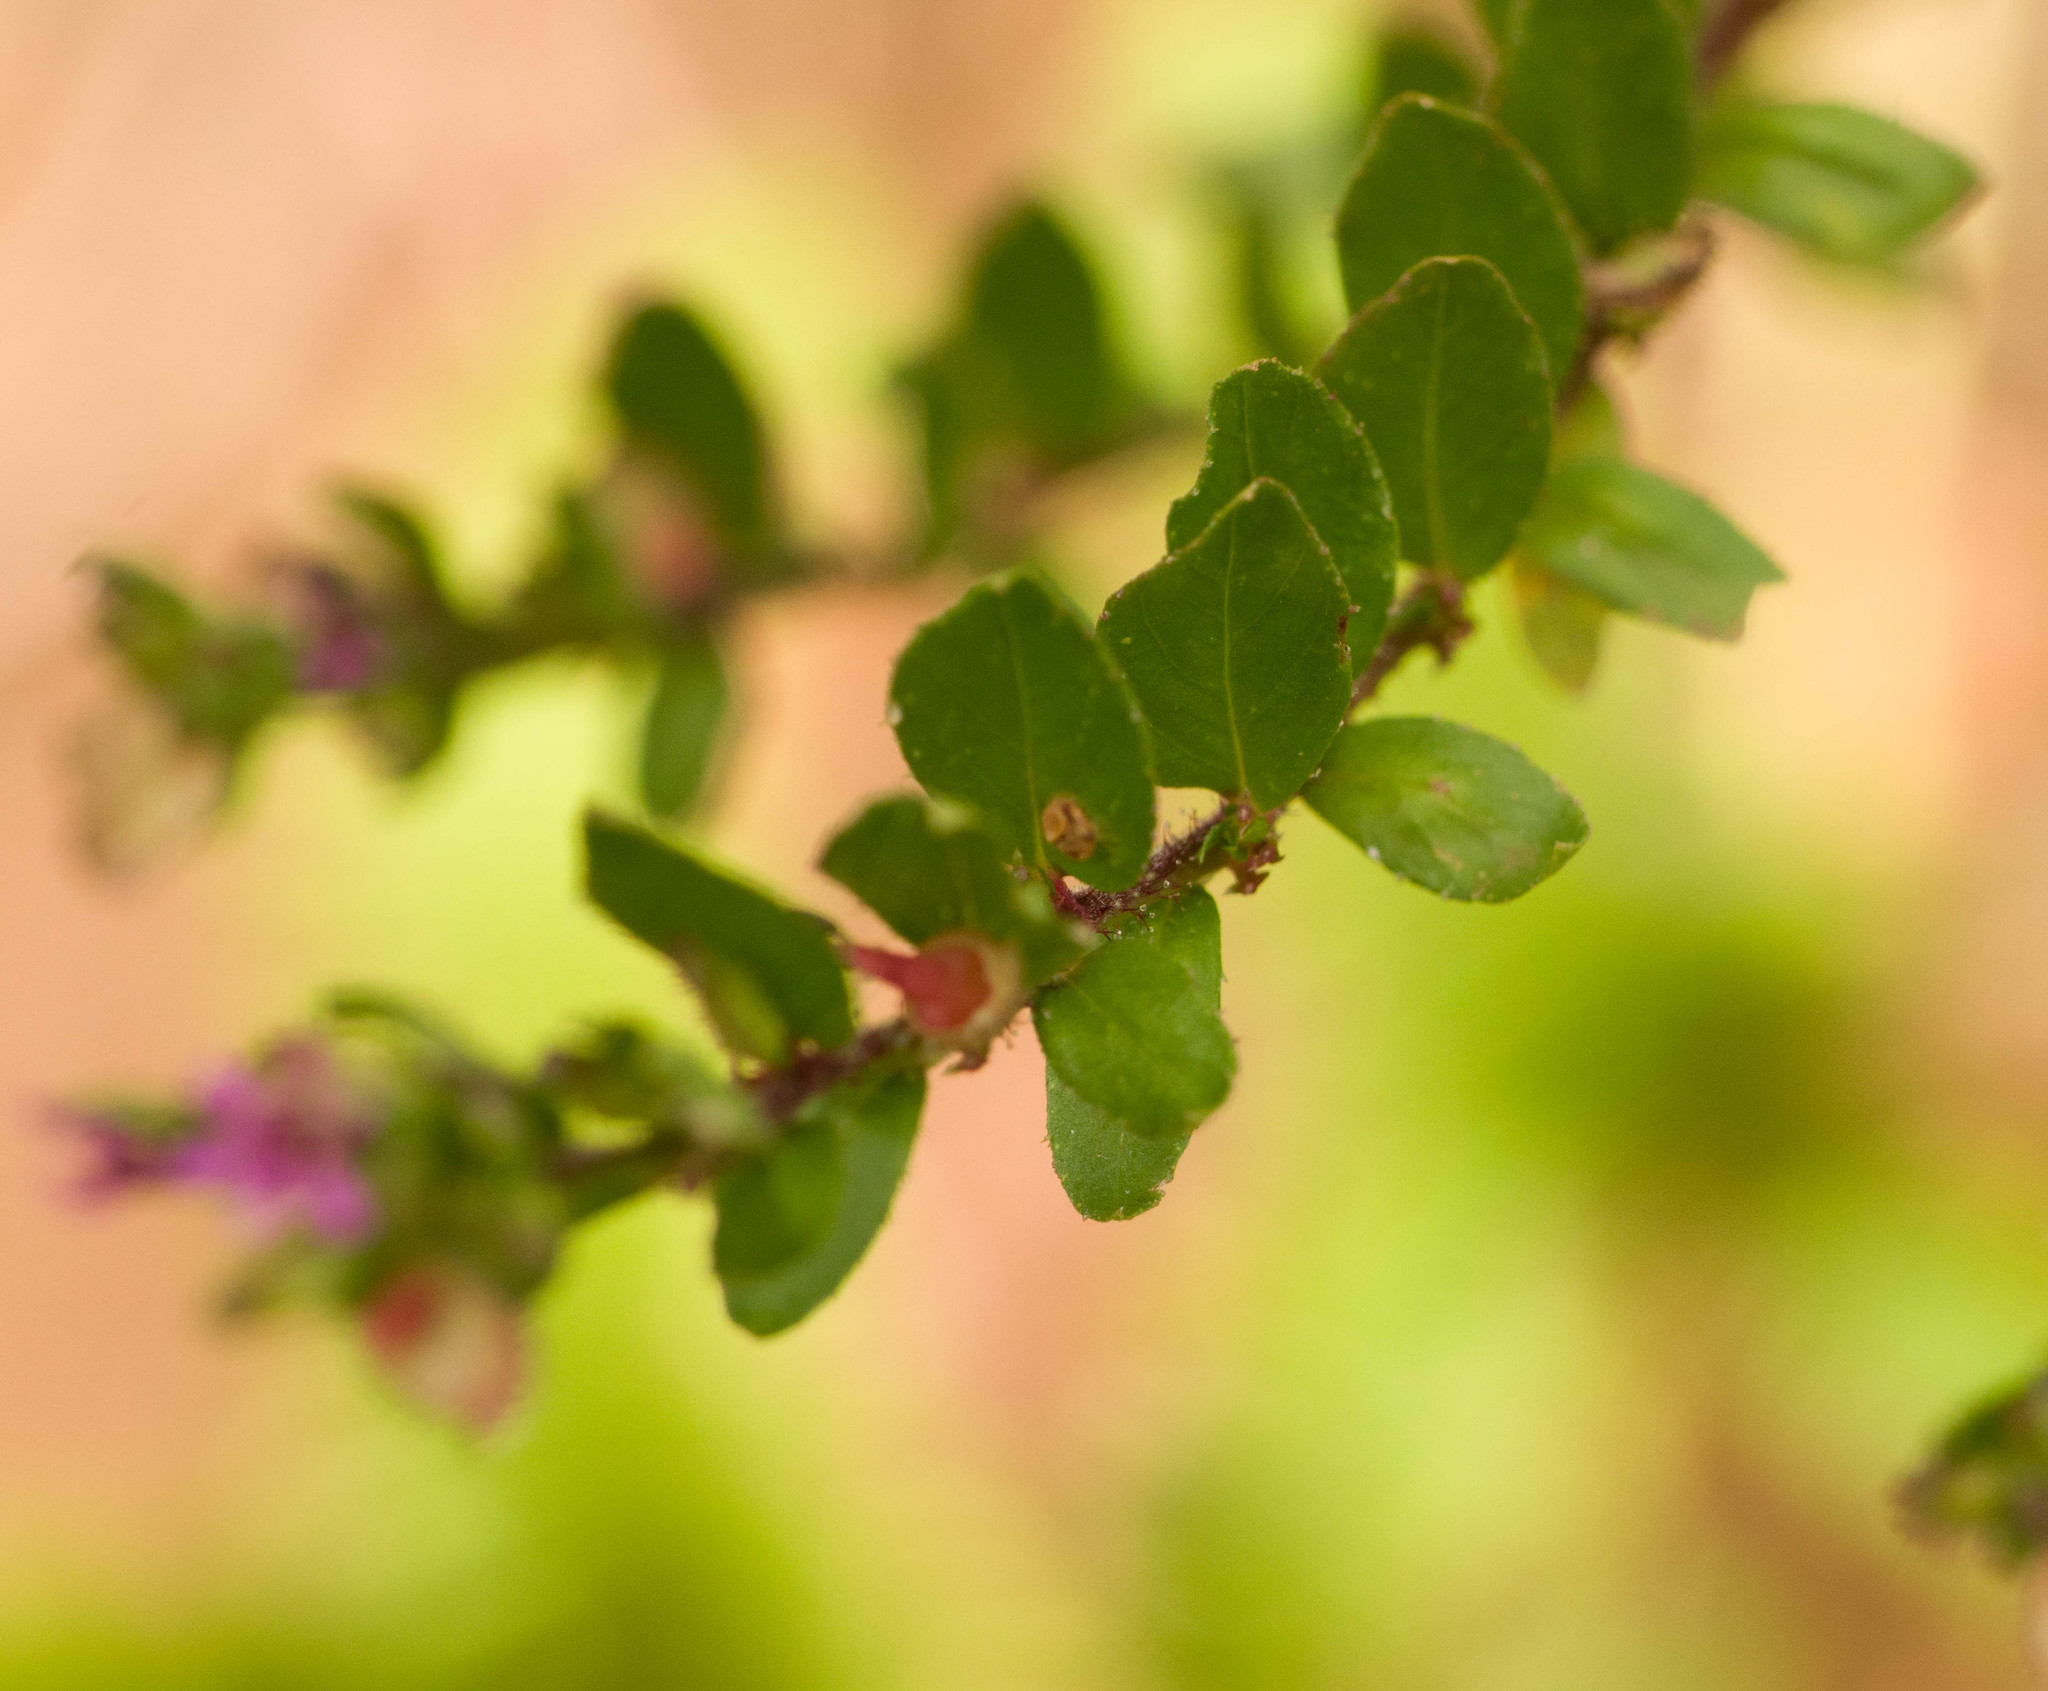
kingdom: Plantae
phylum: Tracheophyta
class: Magnoliopsida
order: Myrtales
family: Lythraceae
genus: Cuphea
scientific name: Cuphea carthagenensis
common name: Colombian waxweed
